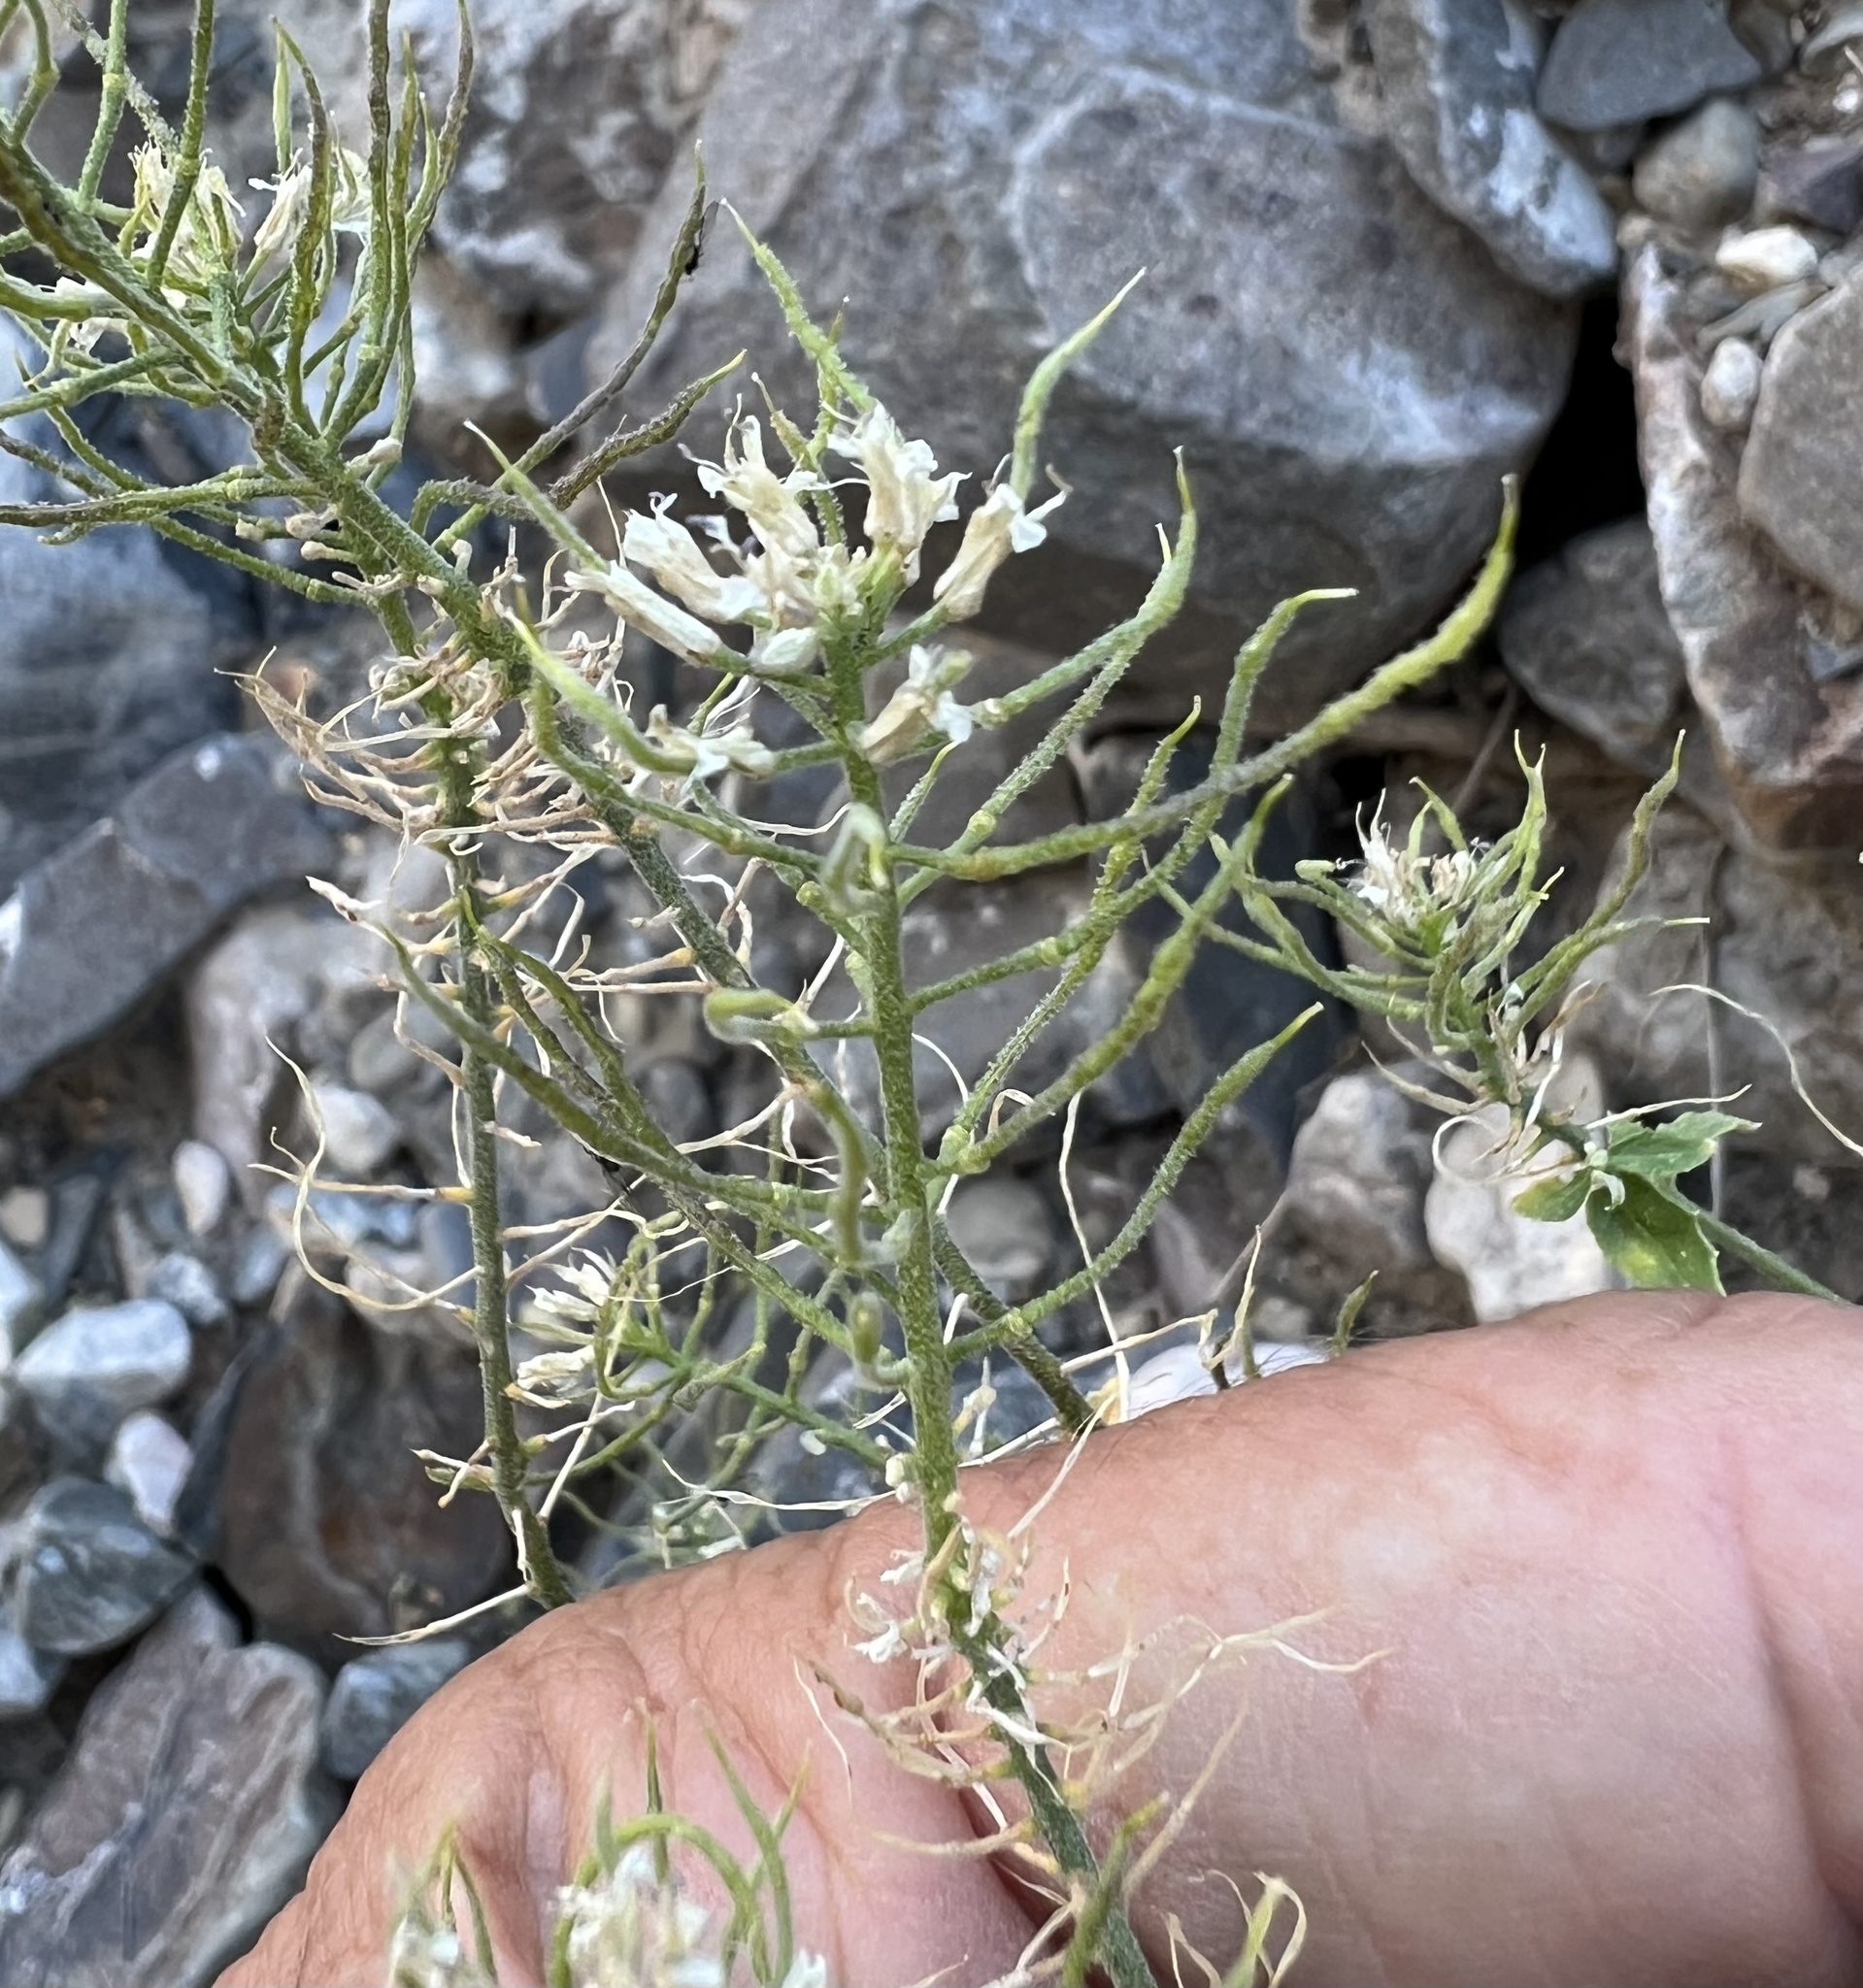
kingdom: Plantae
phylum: Tracheophyta
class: Magnoliopsida
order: Brassicales
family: Brassicaceae
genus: Halimolobos
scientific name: Halimolobos jaegeri
